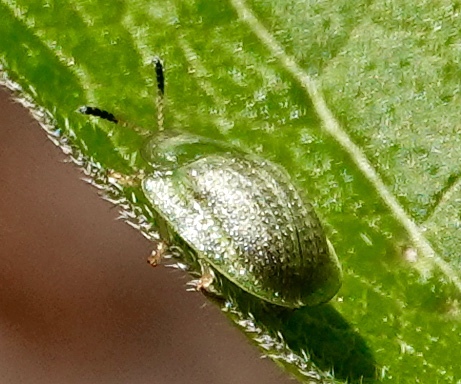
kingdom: Animalia
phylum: Arthropoda
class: Insecta
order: Coleoptera
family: Chrysomelidae
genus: Gratiana
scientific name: Gratiana pallidula
